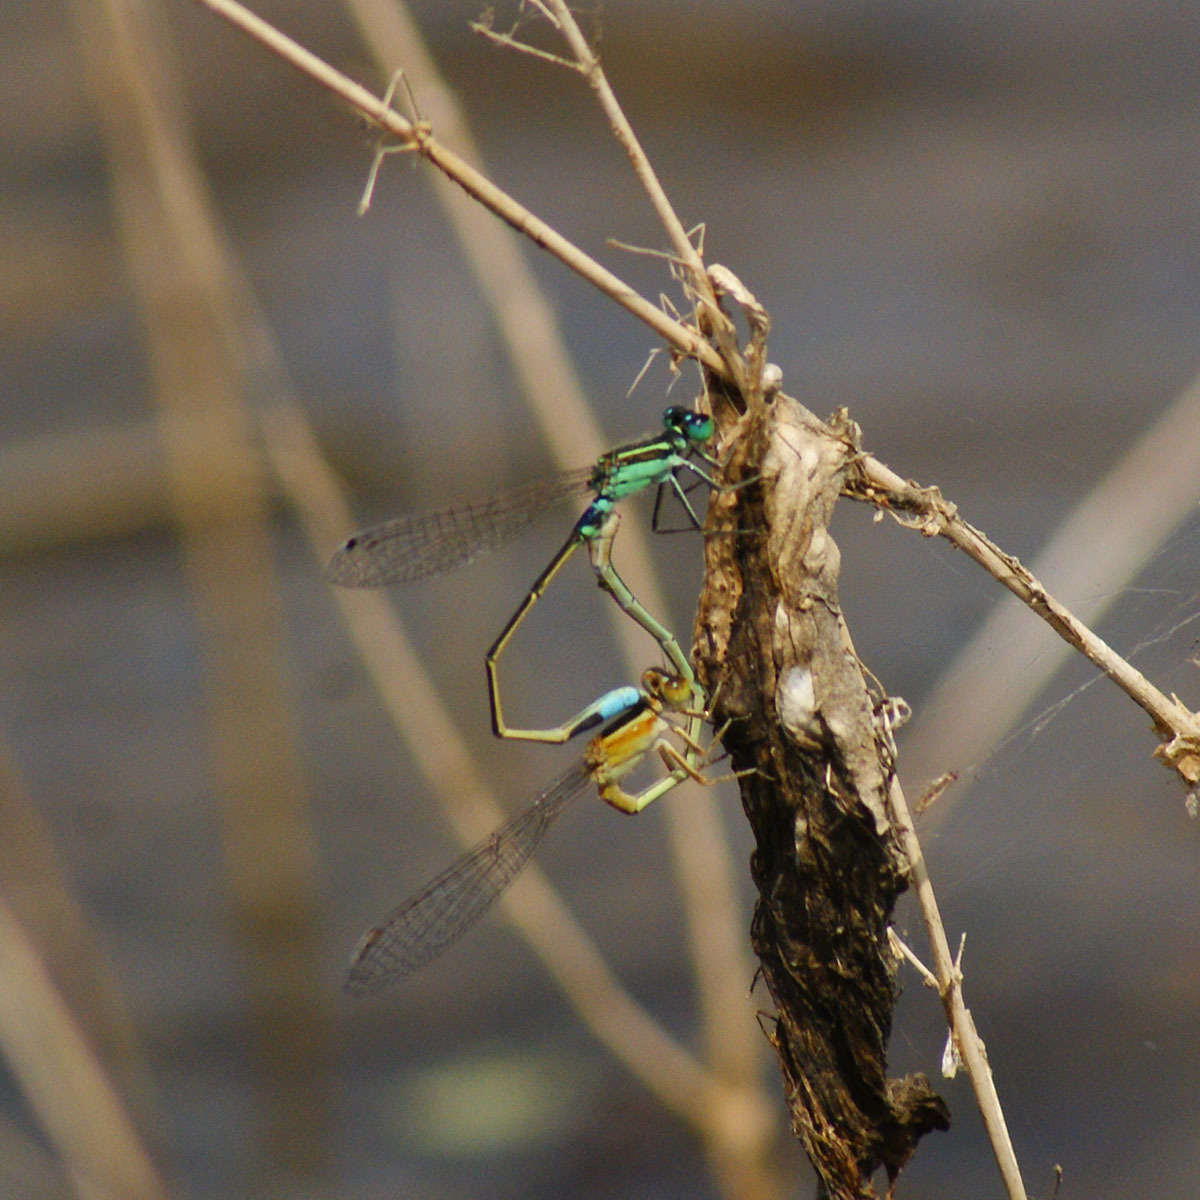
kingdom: Animalia
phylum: Arthropoda
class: Insecta
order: Odonata
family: Coenagrionidae
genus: Ischnura
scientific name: Ischnura senegalensis
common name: Tropical bluetail
